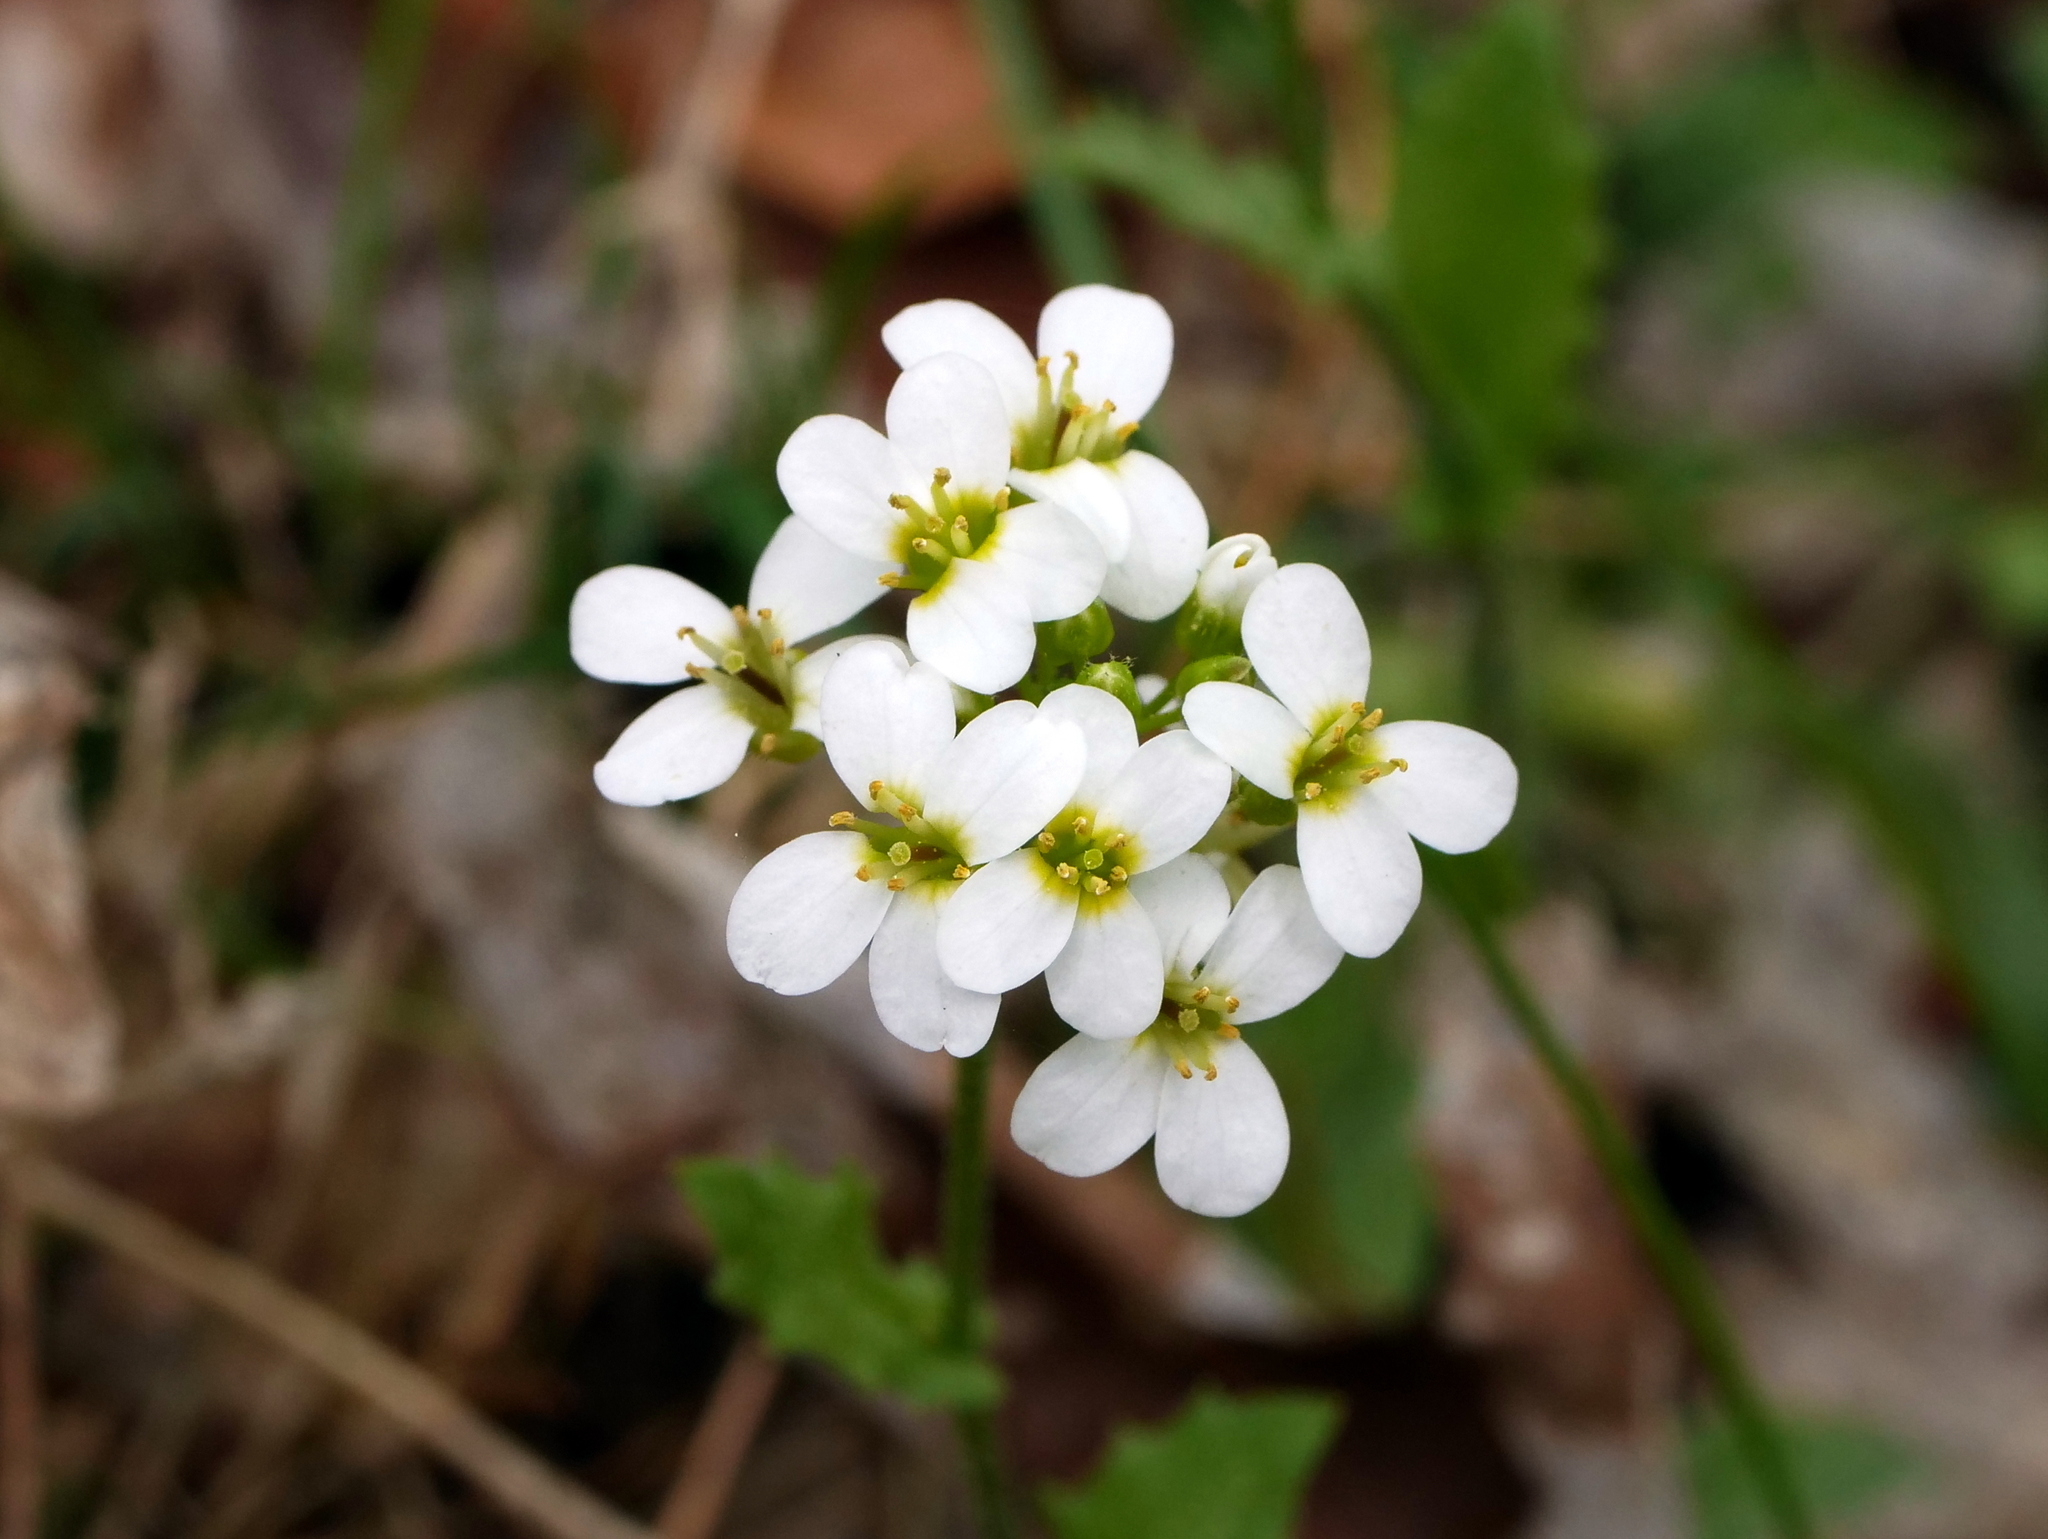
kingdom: Plantae
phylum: Tracheophyta
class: Magnoliopsida
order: Brassicales
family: Brassicaceae
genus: Arabis
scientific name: Arabis alpina
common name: Alpine rock-cress
